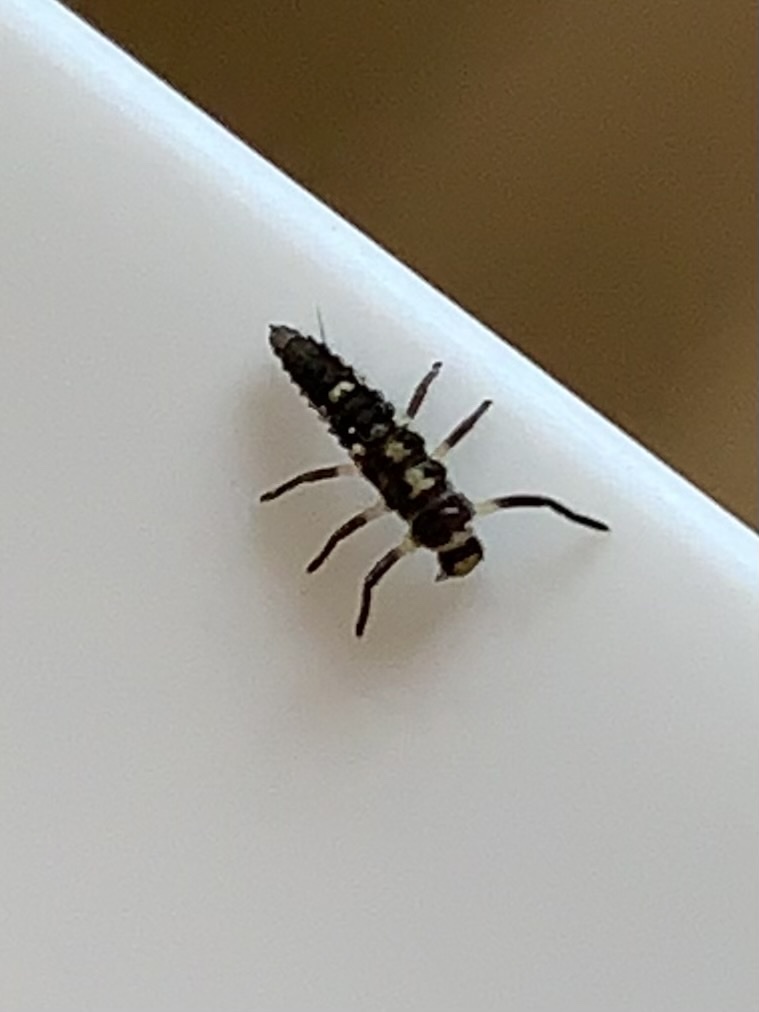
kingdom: Animalia
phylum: Arthropoda
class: Insecta
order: Coleoptera
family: Coccinellidae
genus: Propylaea
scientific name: Propylaea quatuordecimpunctata
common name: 14-spotted ladybird beetle
